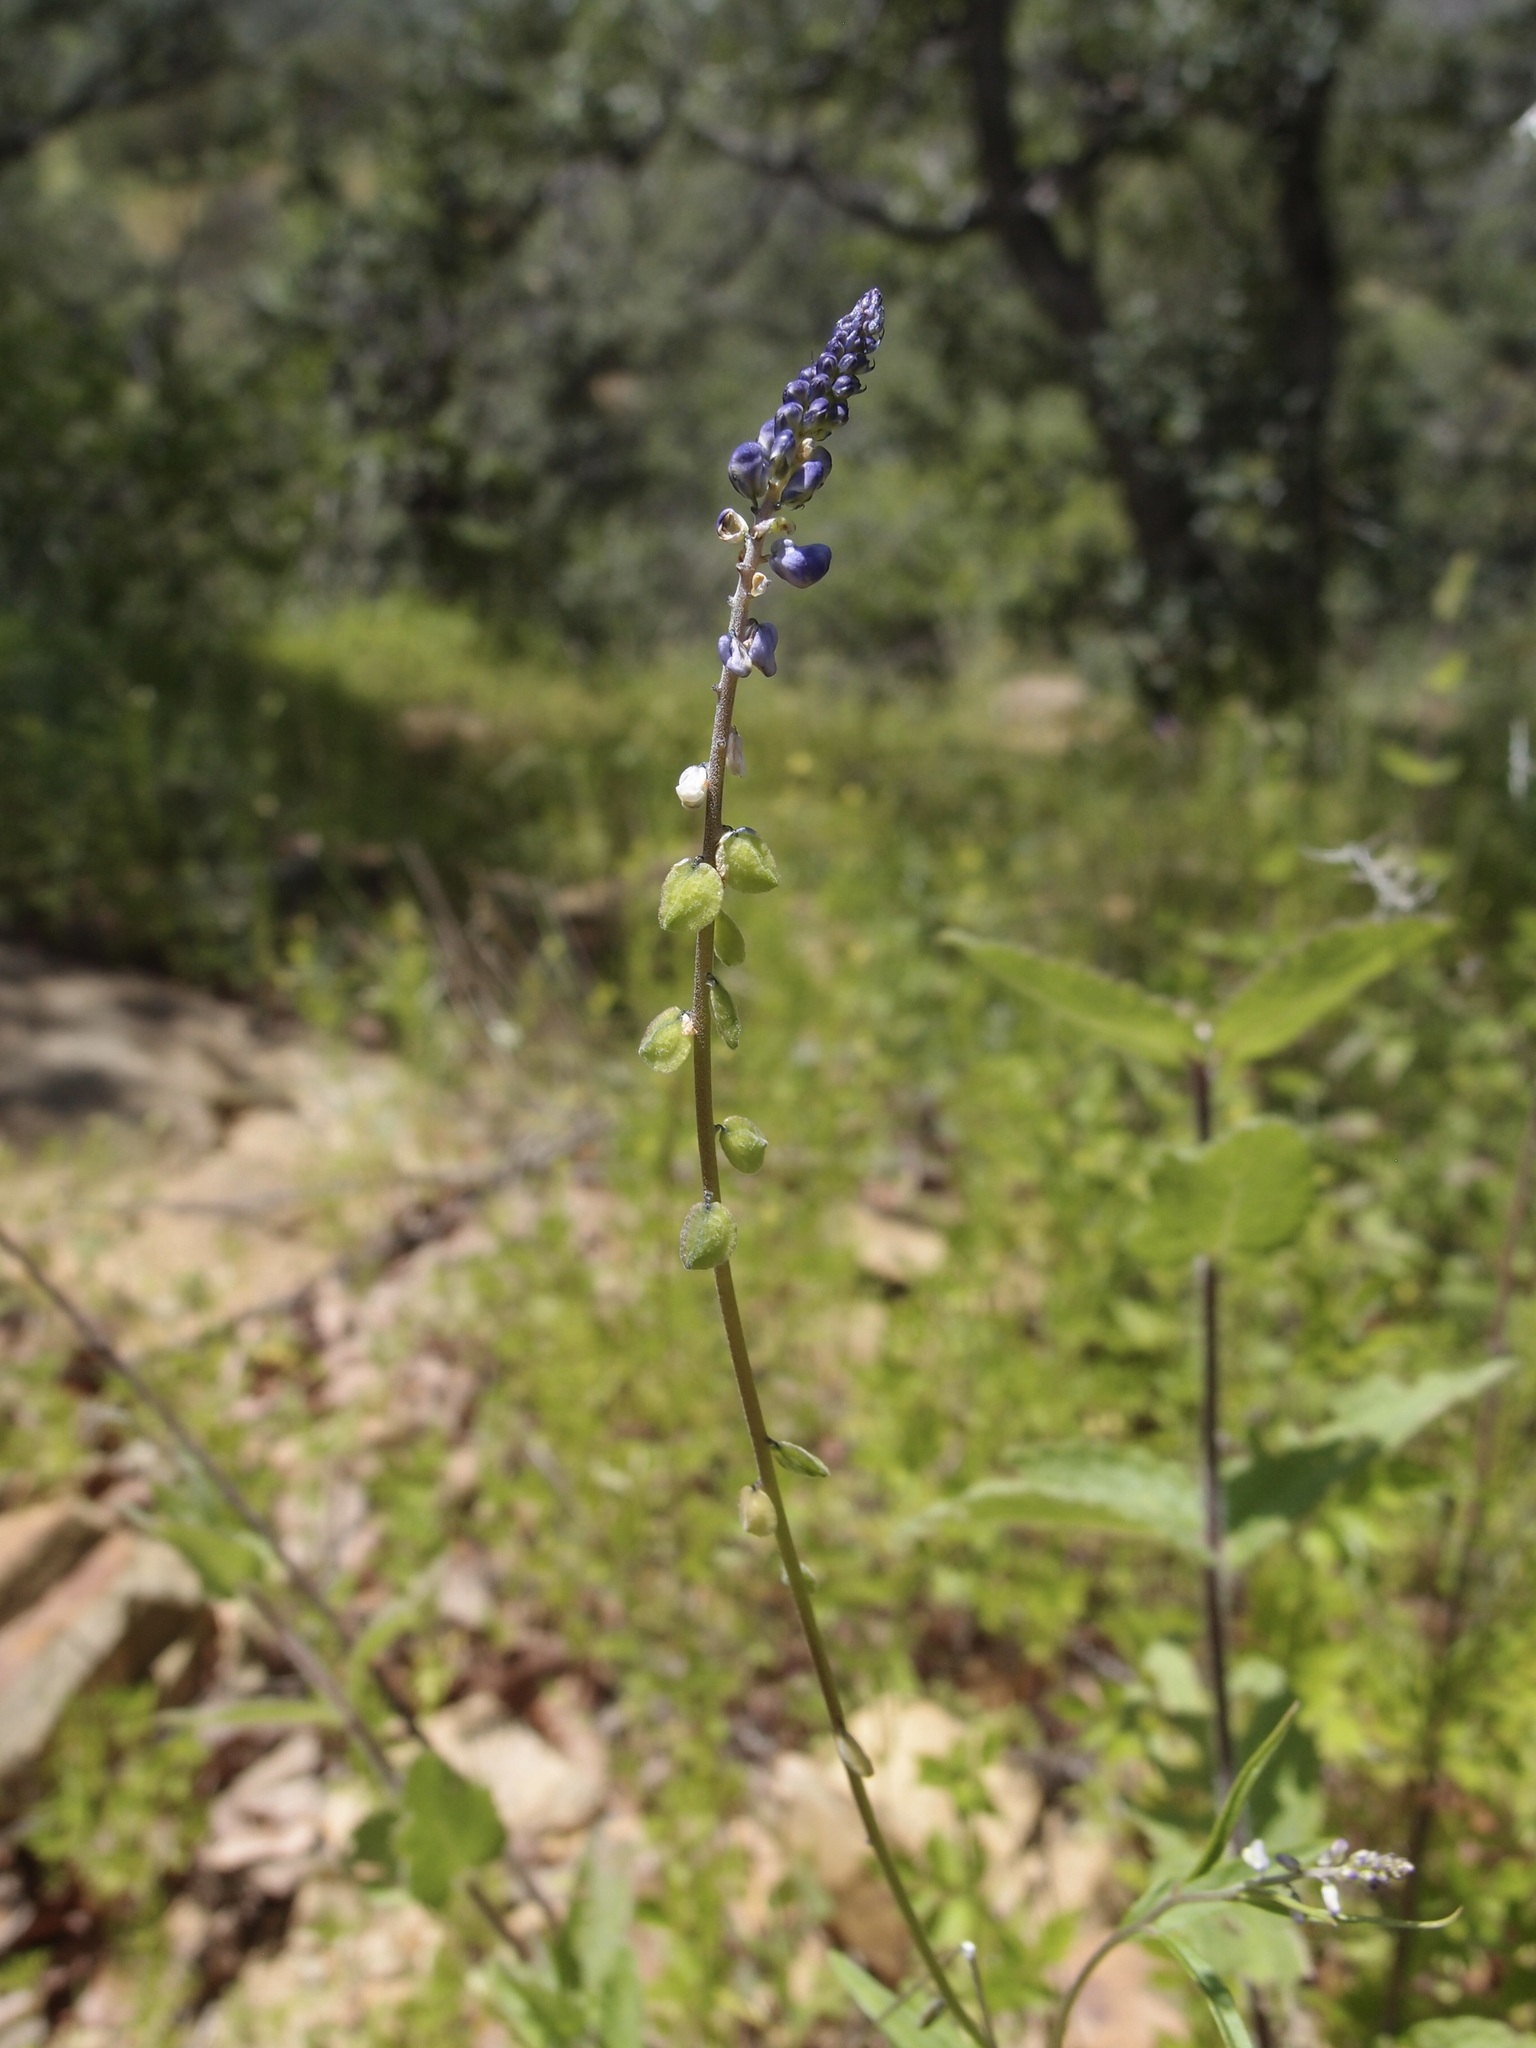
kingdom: Plantae
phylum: Tracheophyta
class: Magnoliopsida
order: Fabales
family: Polygalaceae
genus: Monnina
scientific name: Monnina wrightii
